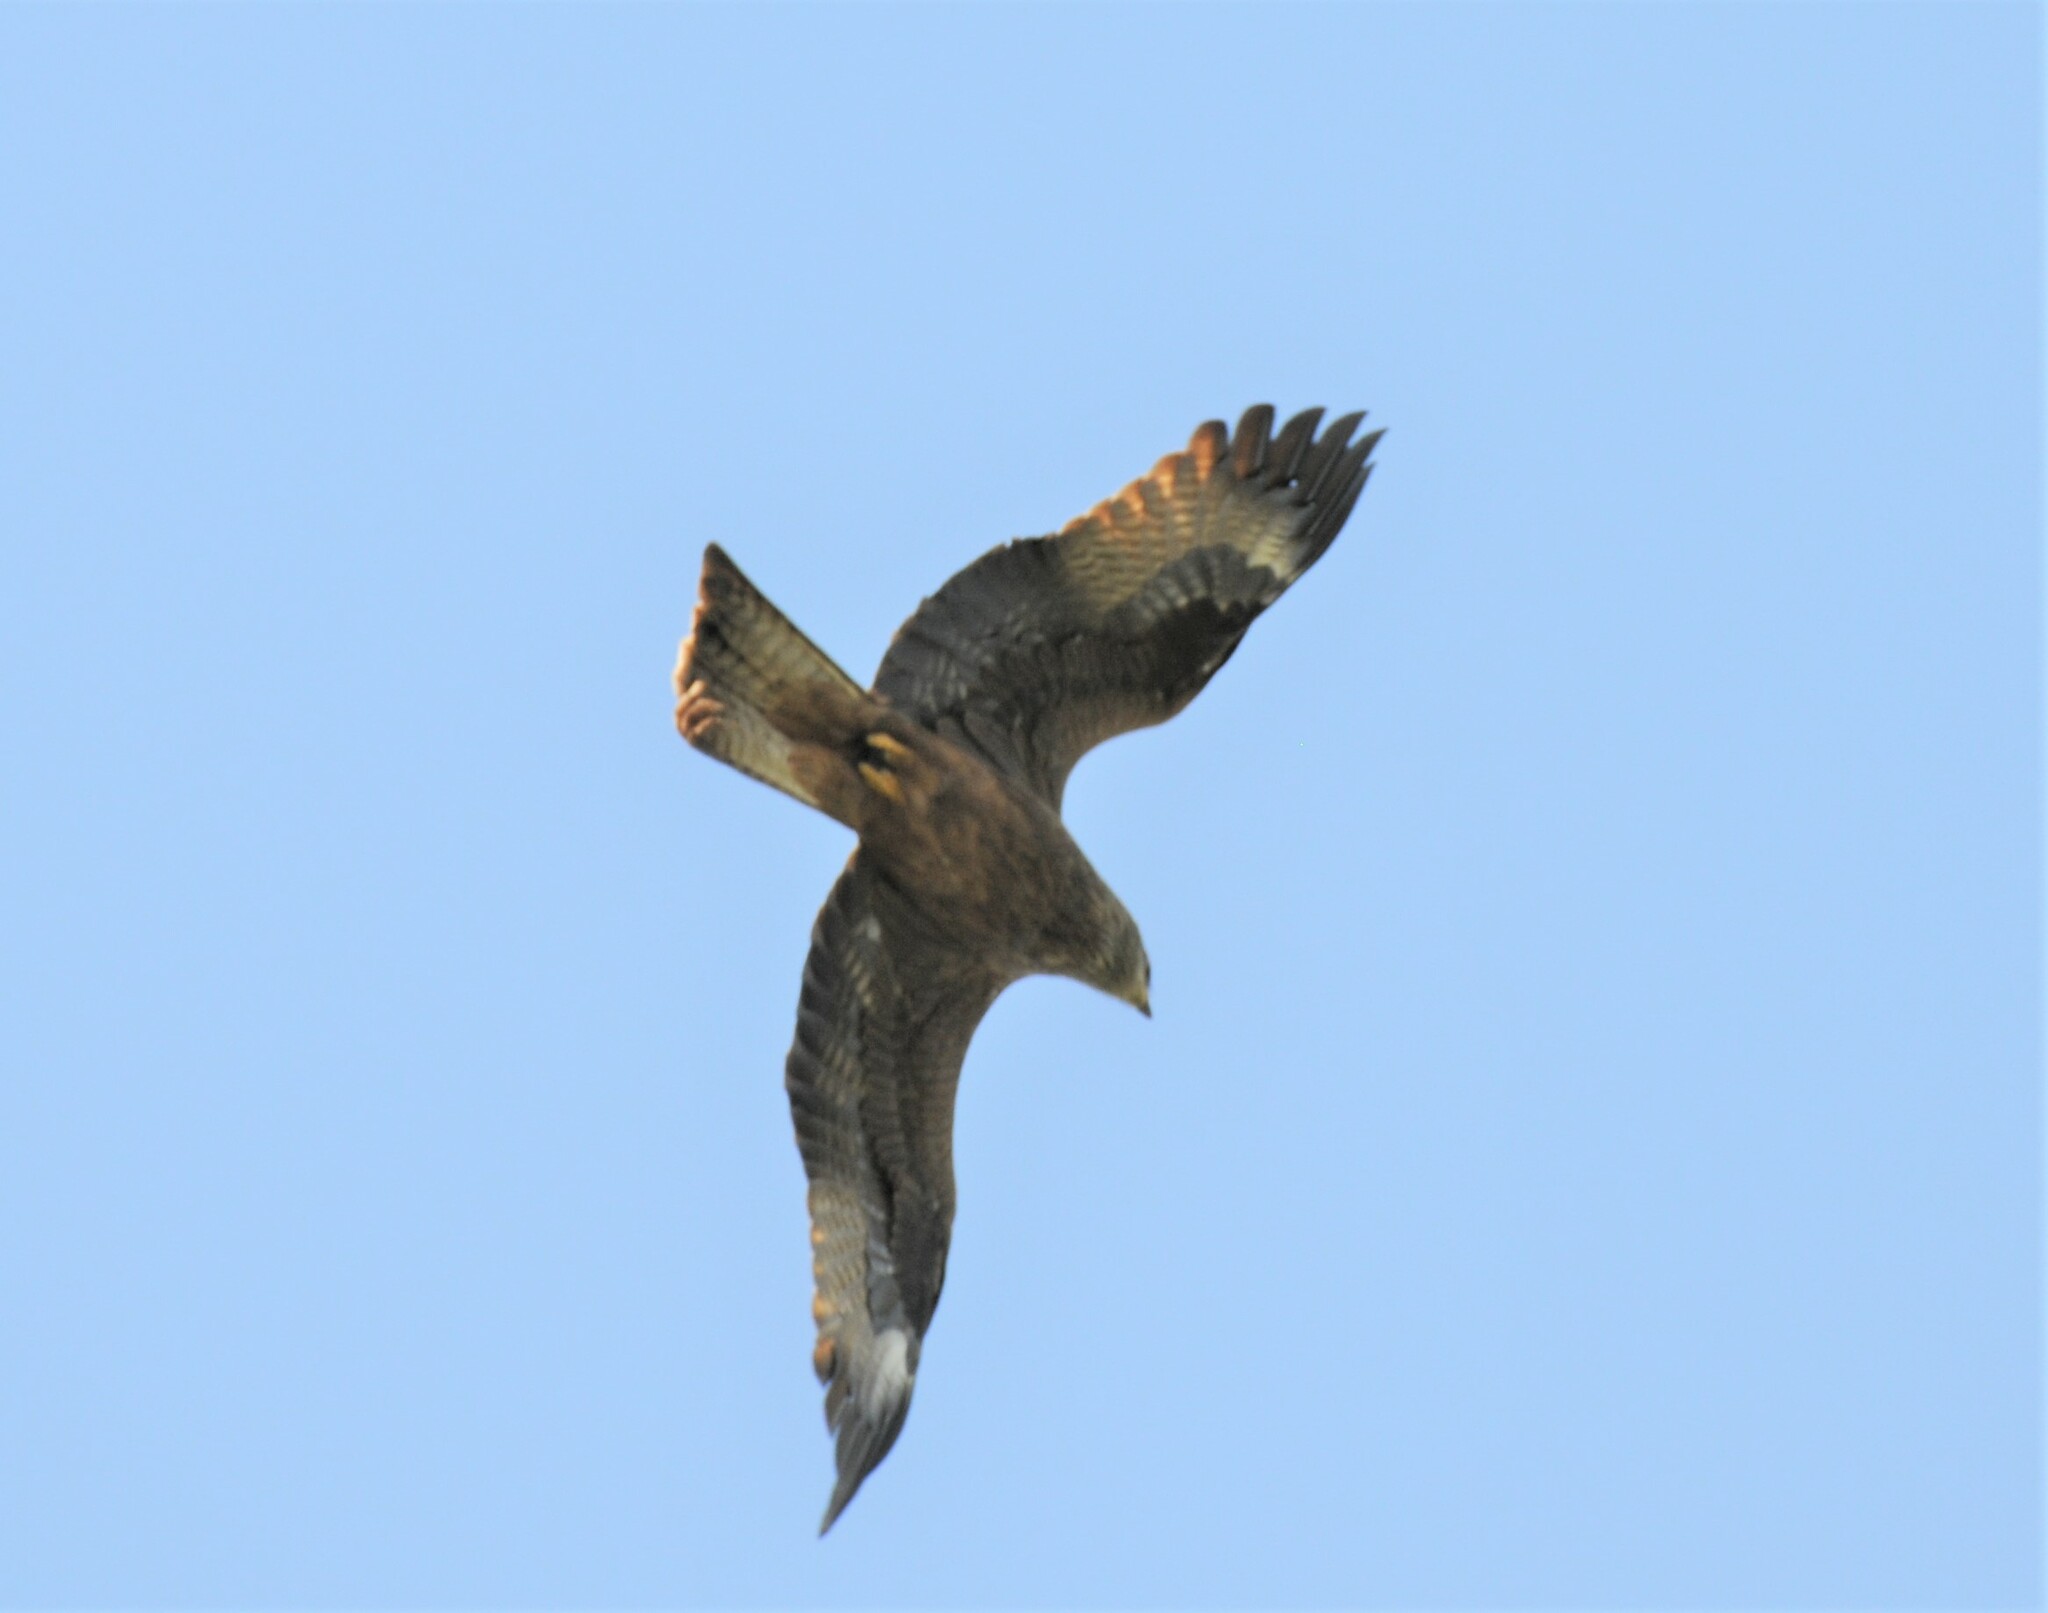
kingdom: Animalia
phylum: Chordata
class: Aves
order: Accipitriformes
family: Accipitridae
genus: Milvus
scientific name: Milvus migrans
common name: Black kite
